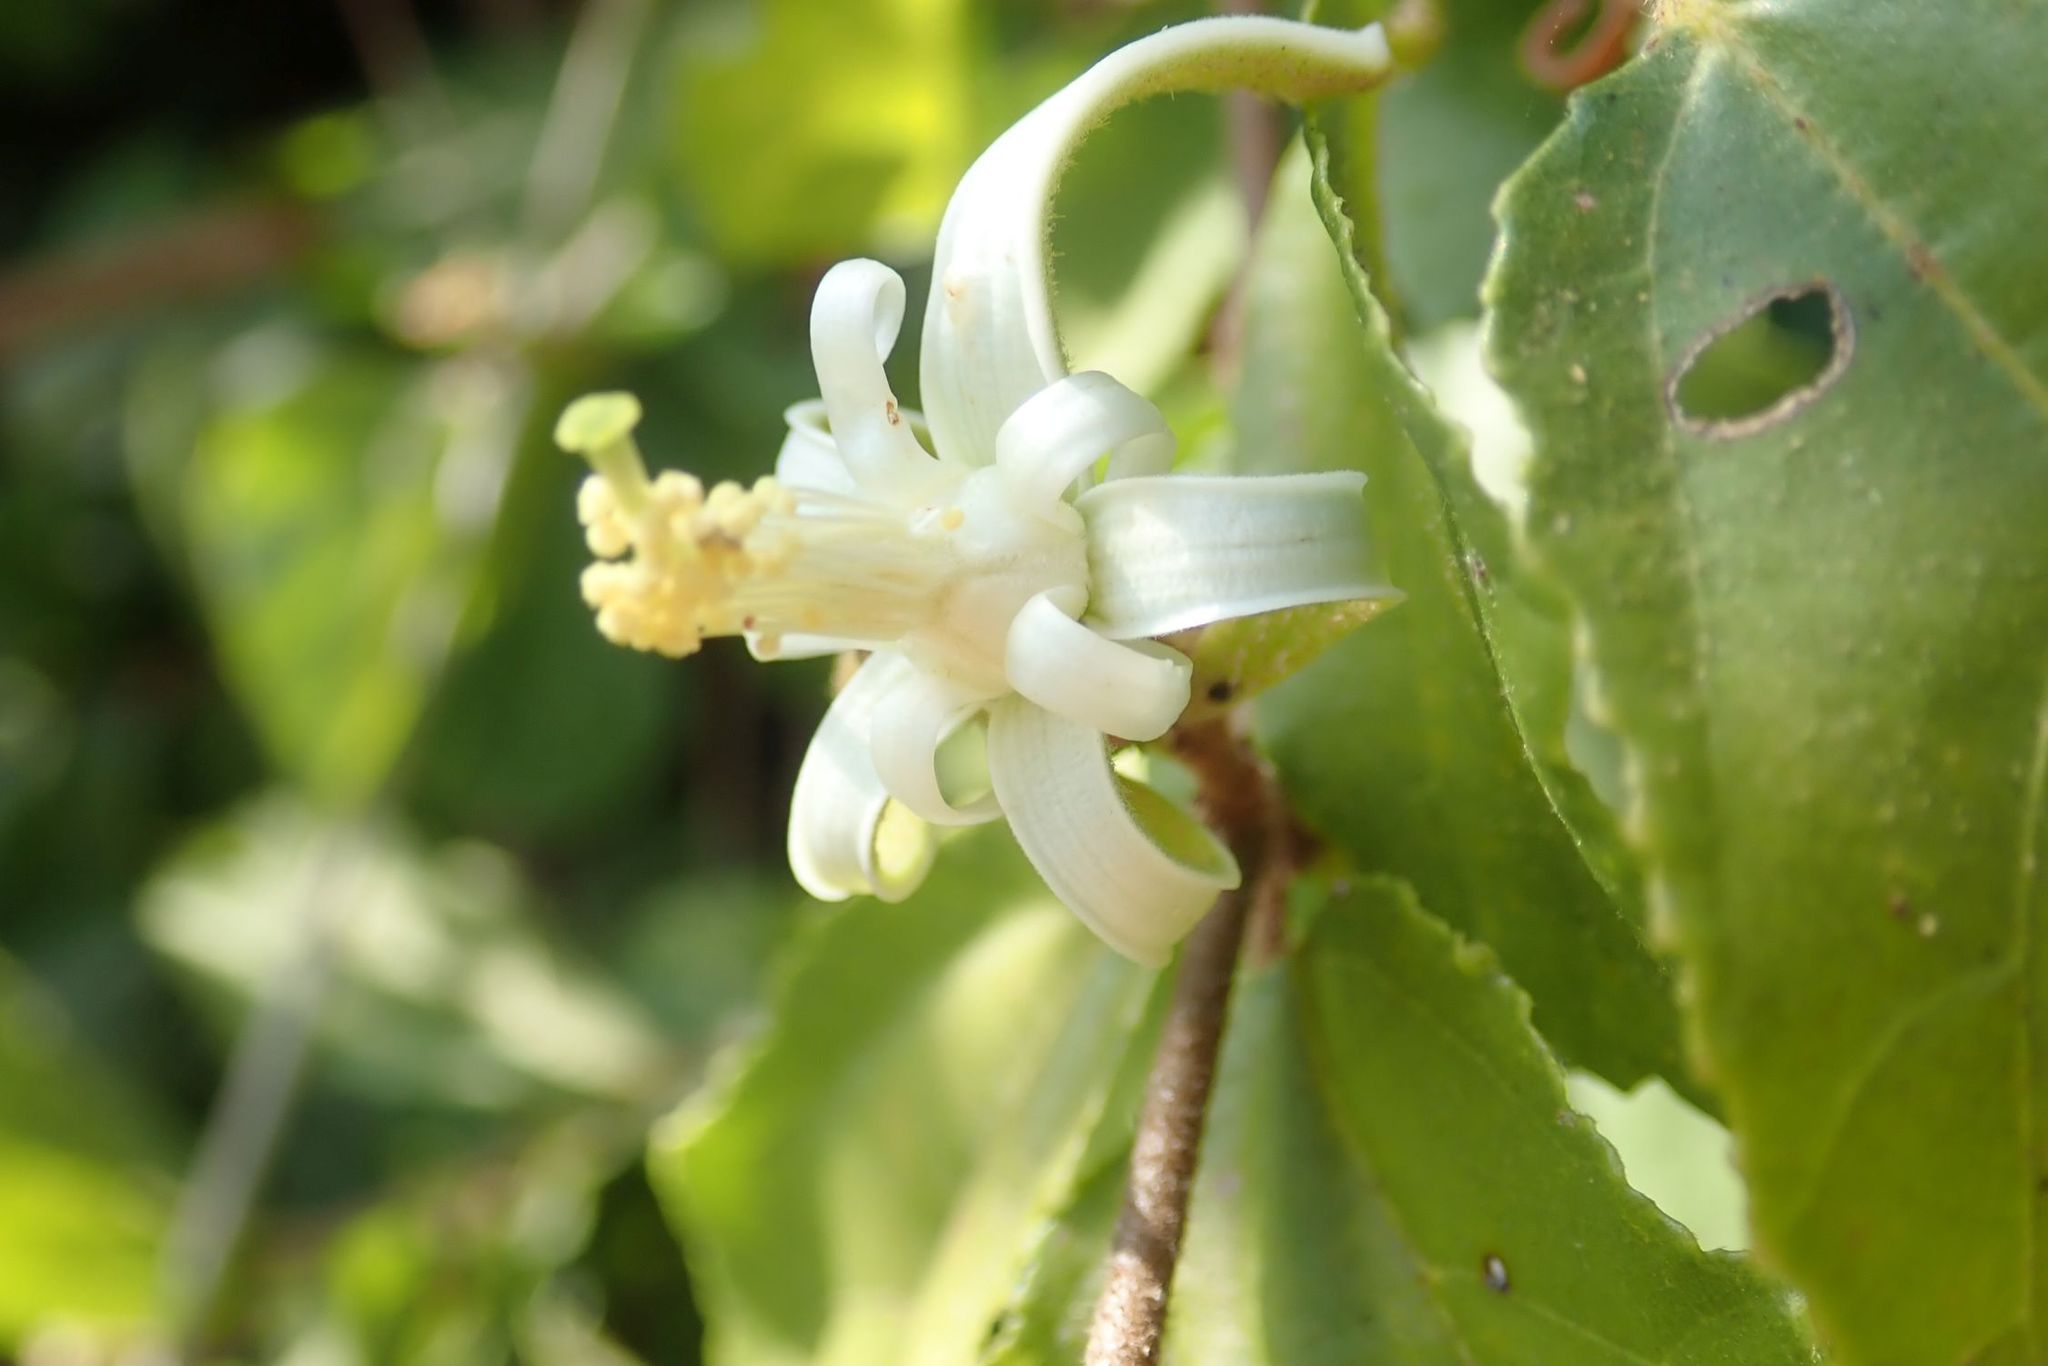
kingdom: Plantae
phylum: Tracheophyta
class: Magnoliopsida
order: Malvales
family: Malvaceae
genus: Grewia
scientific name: Grewia sulcata
